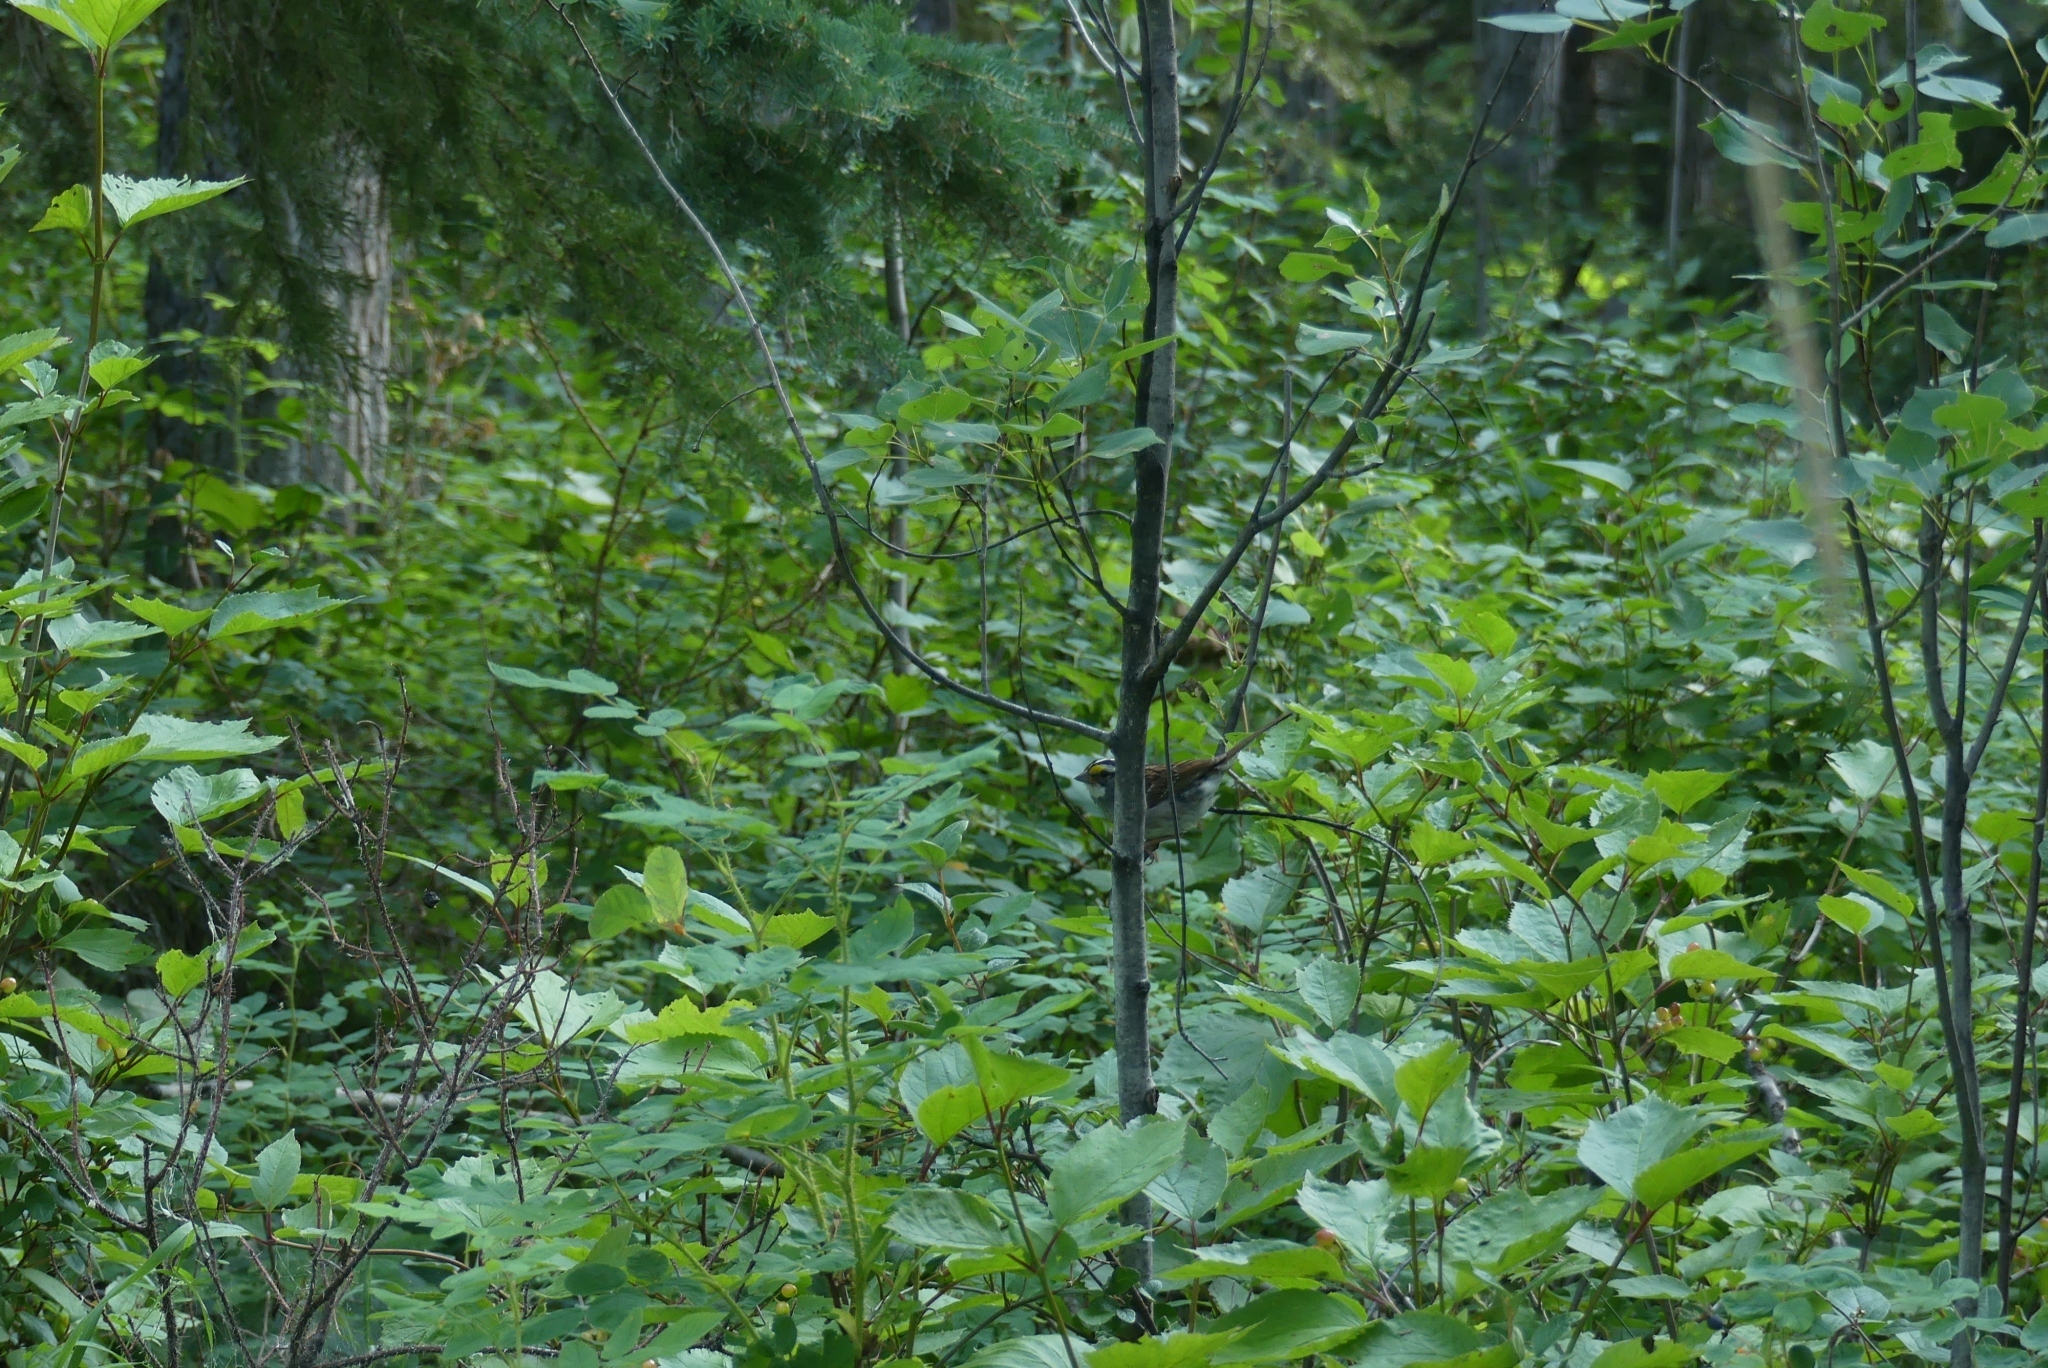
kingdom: Animalia
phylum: Chordata
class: Aves
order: Passeriformes
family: Passerellidae
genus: Zonotrichia
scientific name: Zonotrichia albicollis
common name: White-throated sparrow
